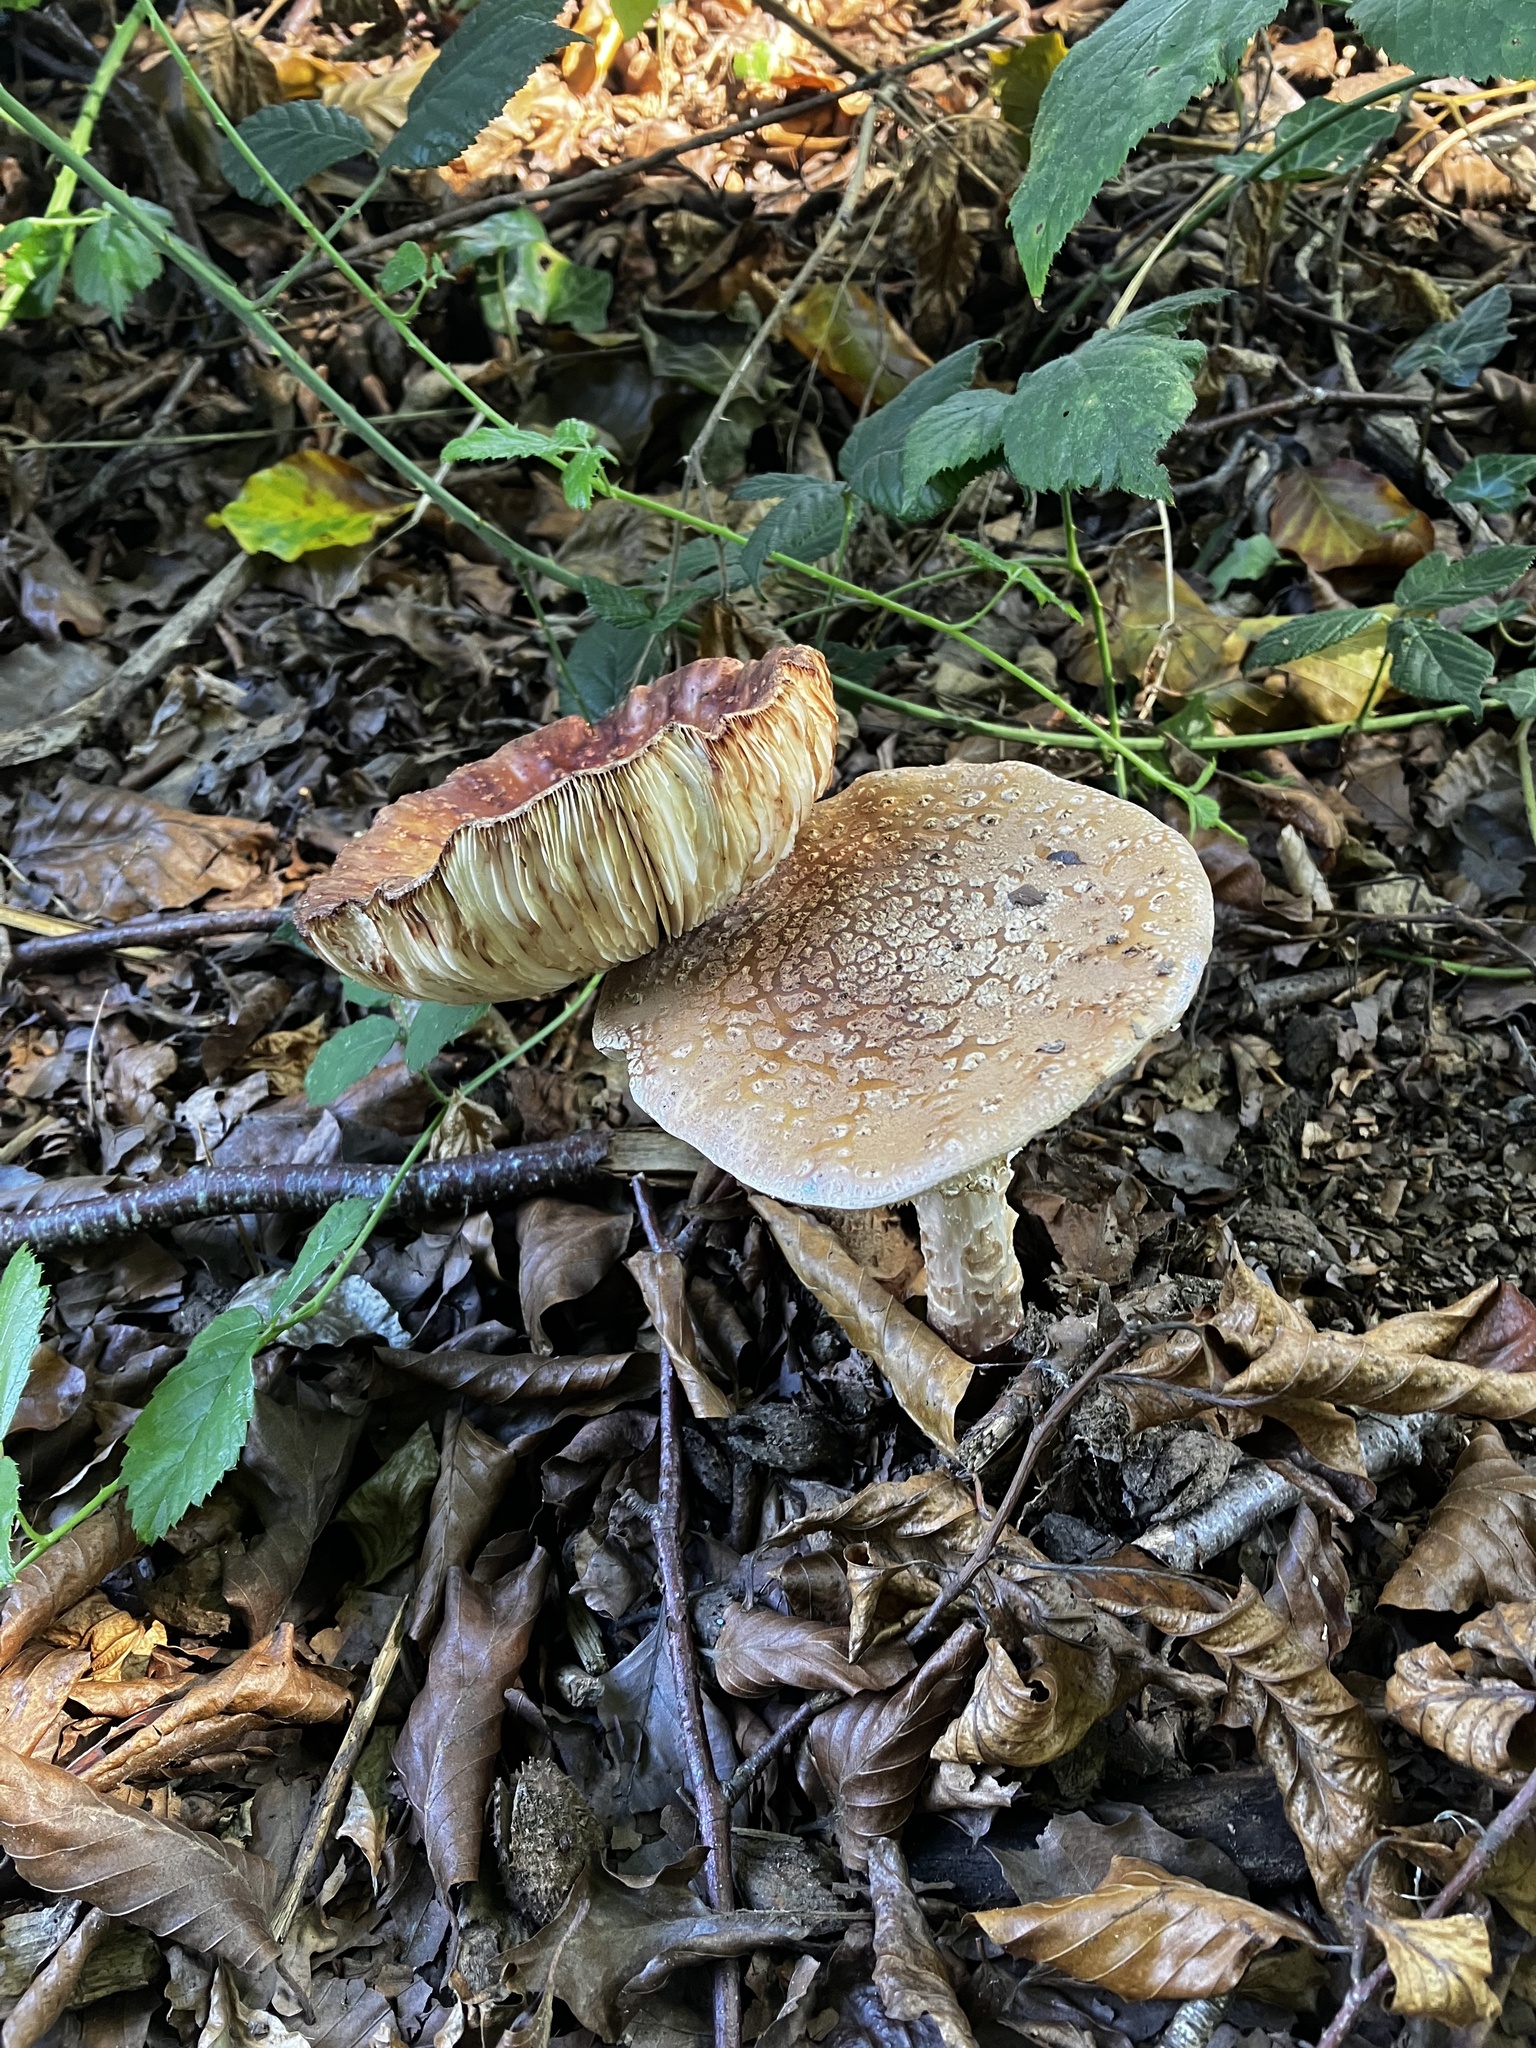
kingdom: Fungi
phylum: Basidiomycota
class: Agaricomycetes
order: Agaricales
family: Amanitaceae
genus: Amanita
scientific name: Amanita rubescens
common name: Blusher
